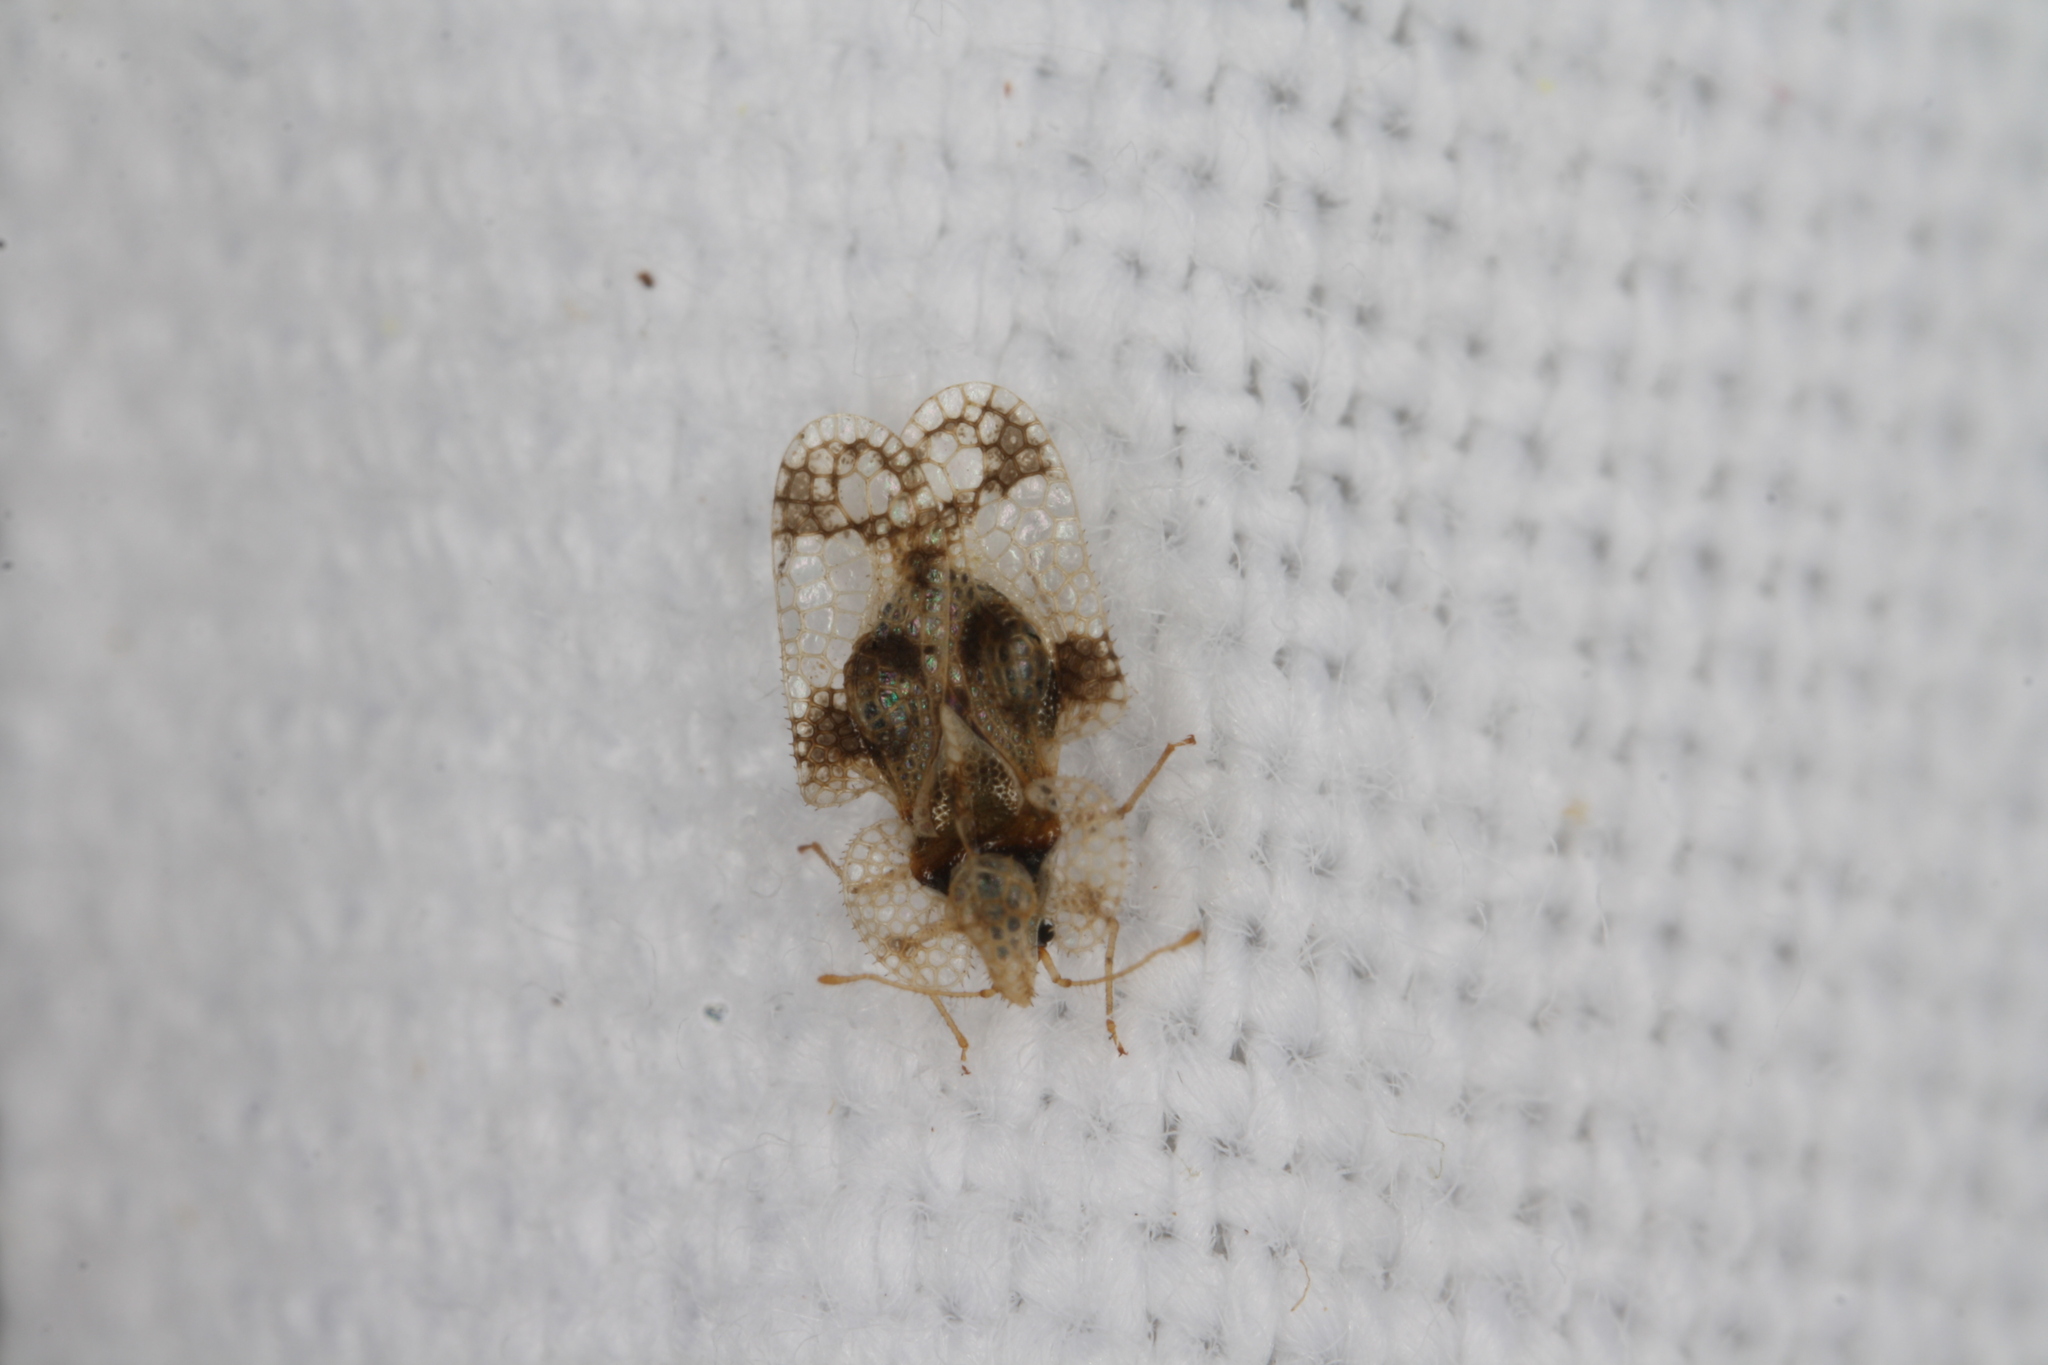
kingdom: Animalia
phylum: Arthropoda
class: Insecta
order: Hemiptera
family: Tingidae
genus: Corythucha
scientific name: Corythucha arcuata
